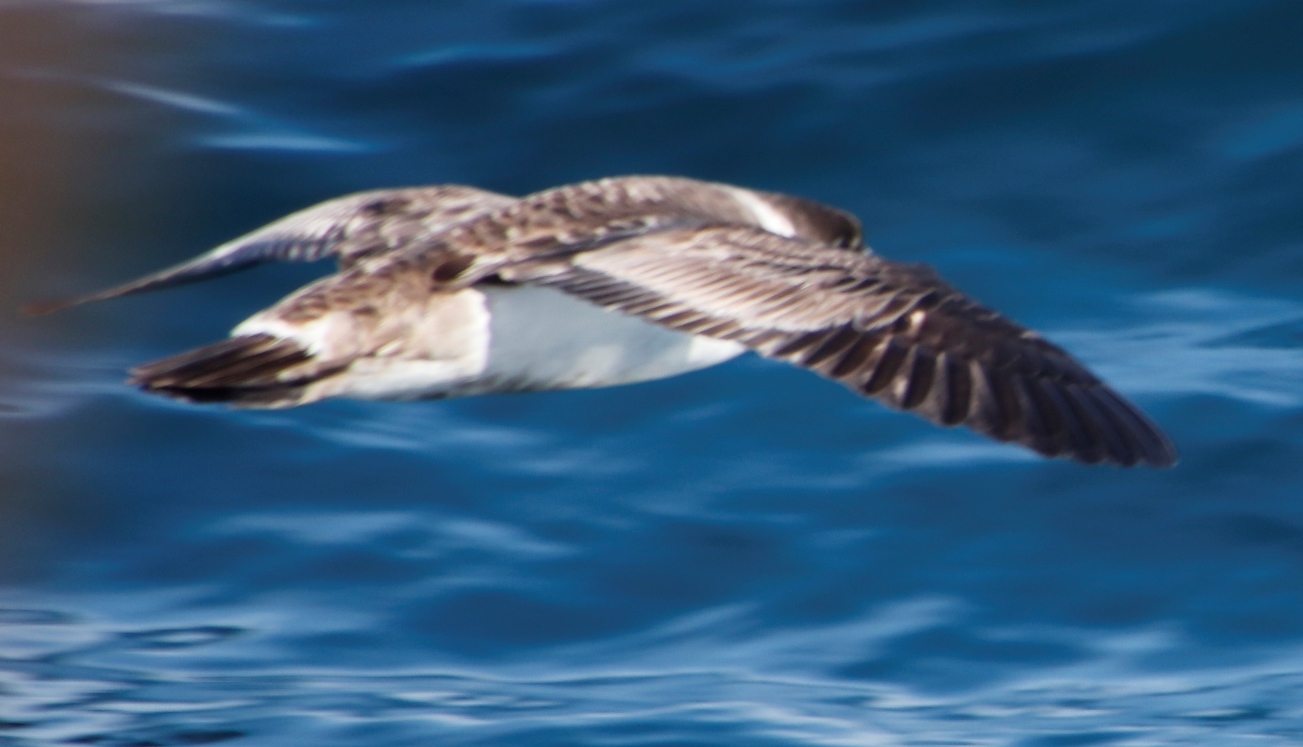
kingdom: Animalia
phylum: Chordata
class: Aves
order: Procellariiformes
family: Procellariidae
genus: Puffinus
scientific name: Puffinus gravis
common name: Great shearwater
